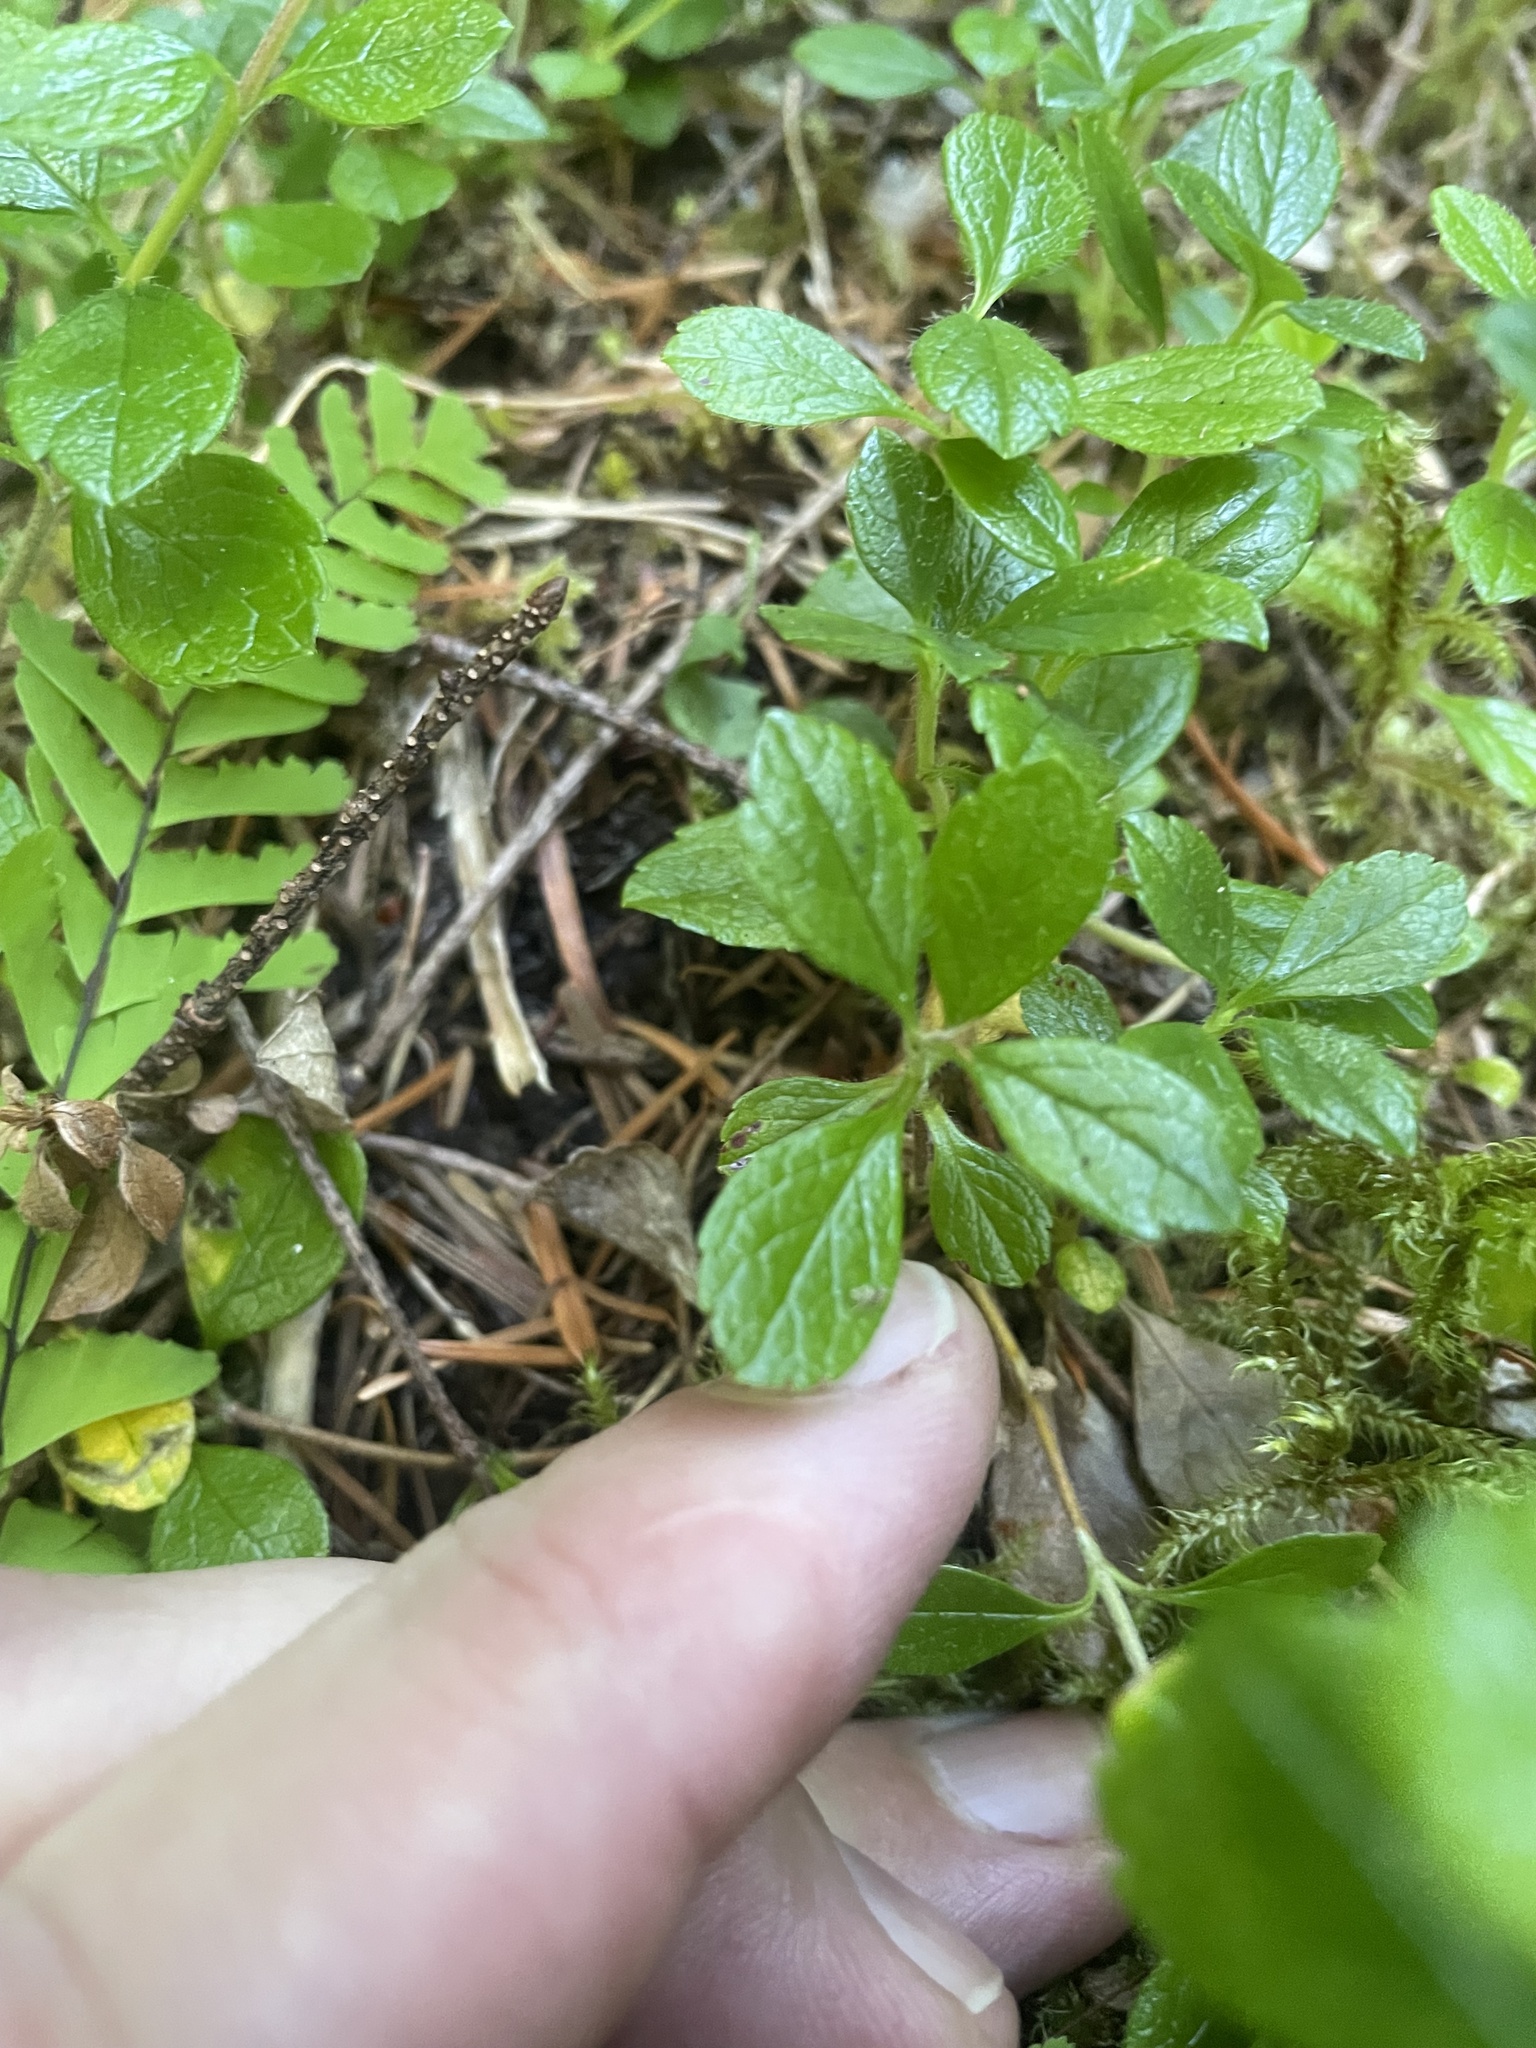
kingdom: Plantae
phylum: Tracheophyta
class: Magnoliopsida
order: Dipsacales
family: Caprifoliaceae
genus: Linnaea
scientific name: Linnaea borealis
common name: Twinflower
